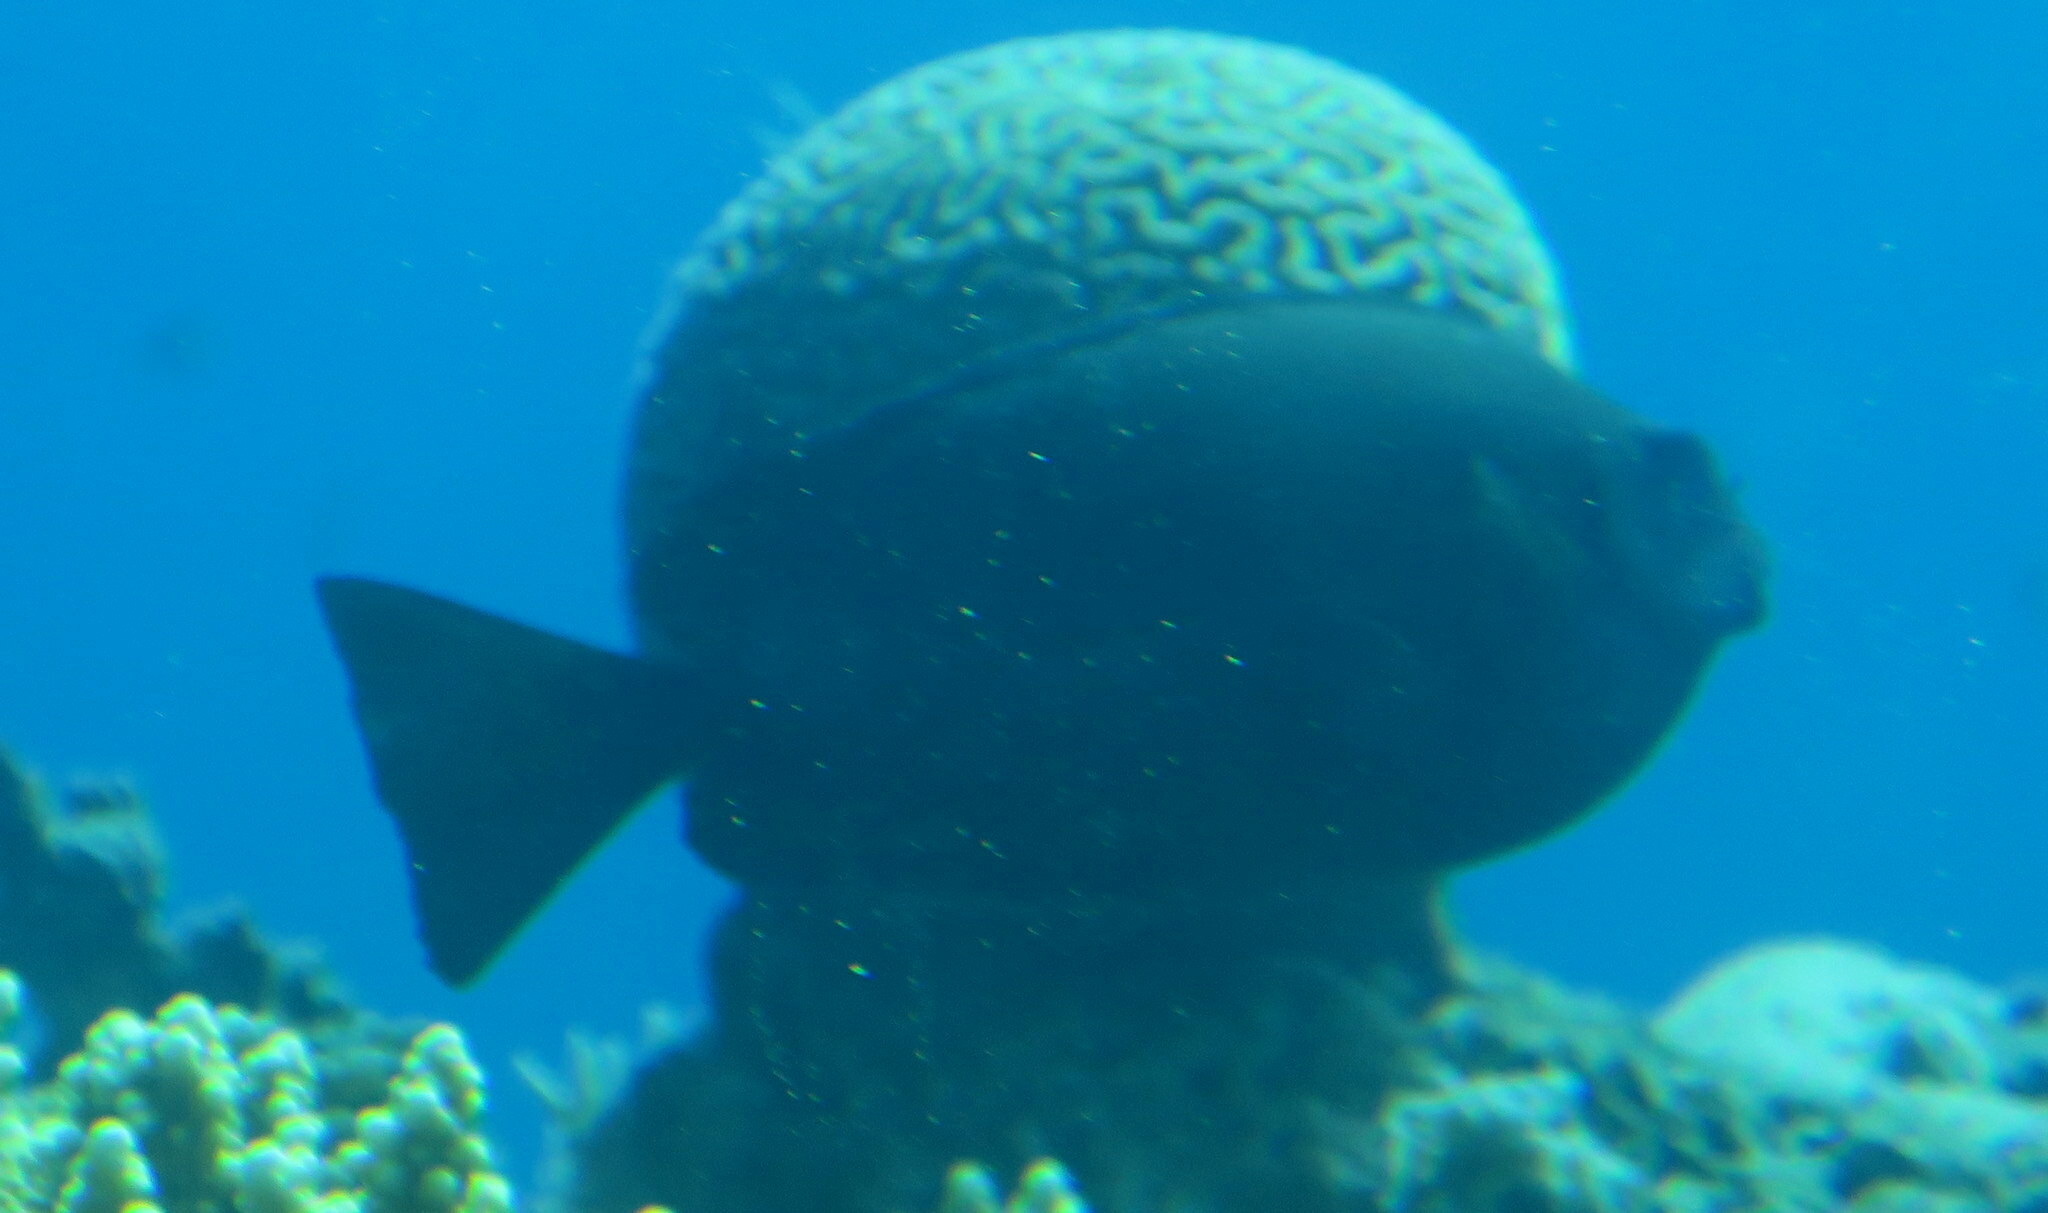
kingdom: Animalia
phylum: Chordata
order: Perciformes
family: Siganidae
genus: Siganus
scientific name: Siganus luridus
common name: Dusky spinefoot
